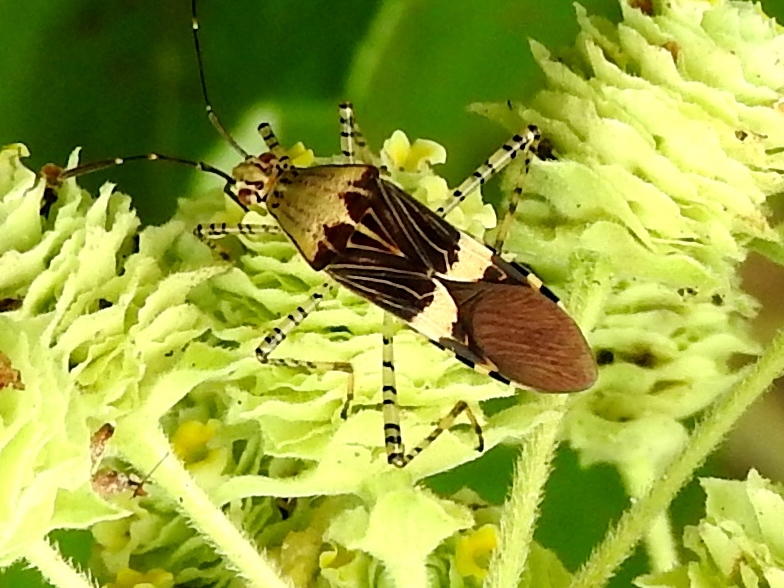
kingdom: Animalia
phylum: Arthropoda
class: Insecta
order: Hemiptera
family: Coreidae
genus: Hypselonotus
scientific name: Hypselonotus
